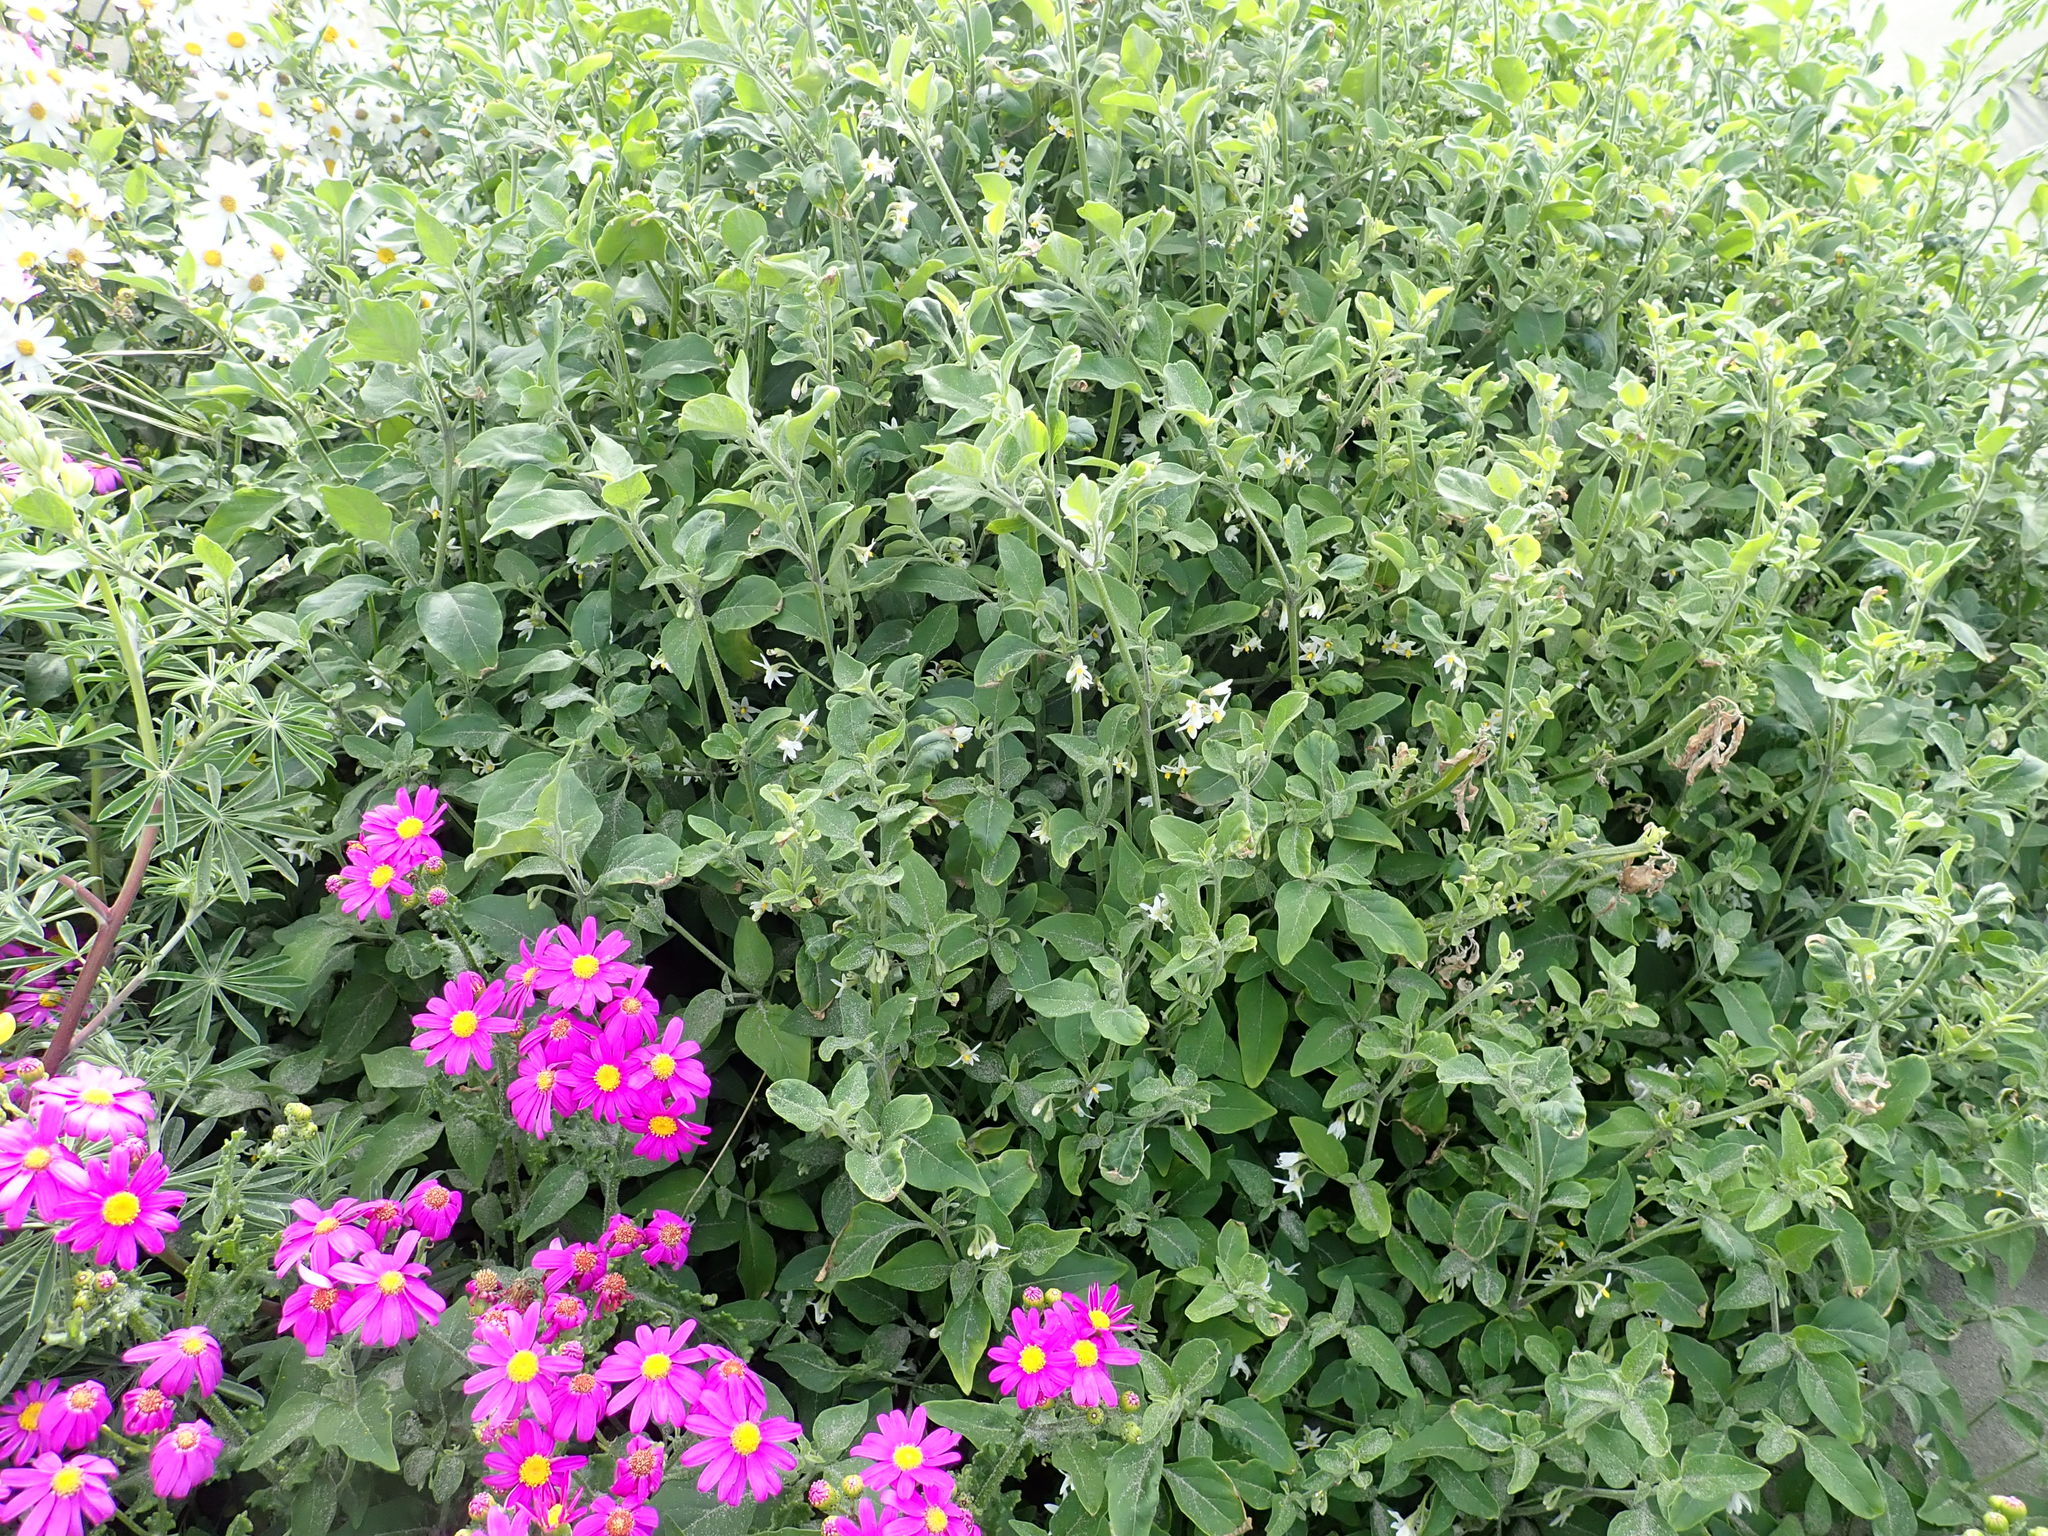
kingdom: Plantae
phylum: Tracheophyta
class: Magnoliopsida
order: Solanales
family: Solanaceae
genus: Solanum
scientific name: Solanum chenopodioides
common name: Tall nightshade
